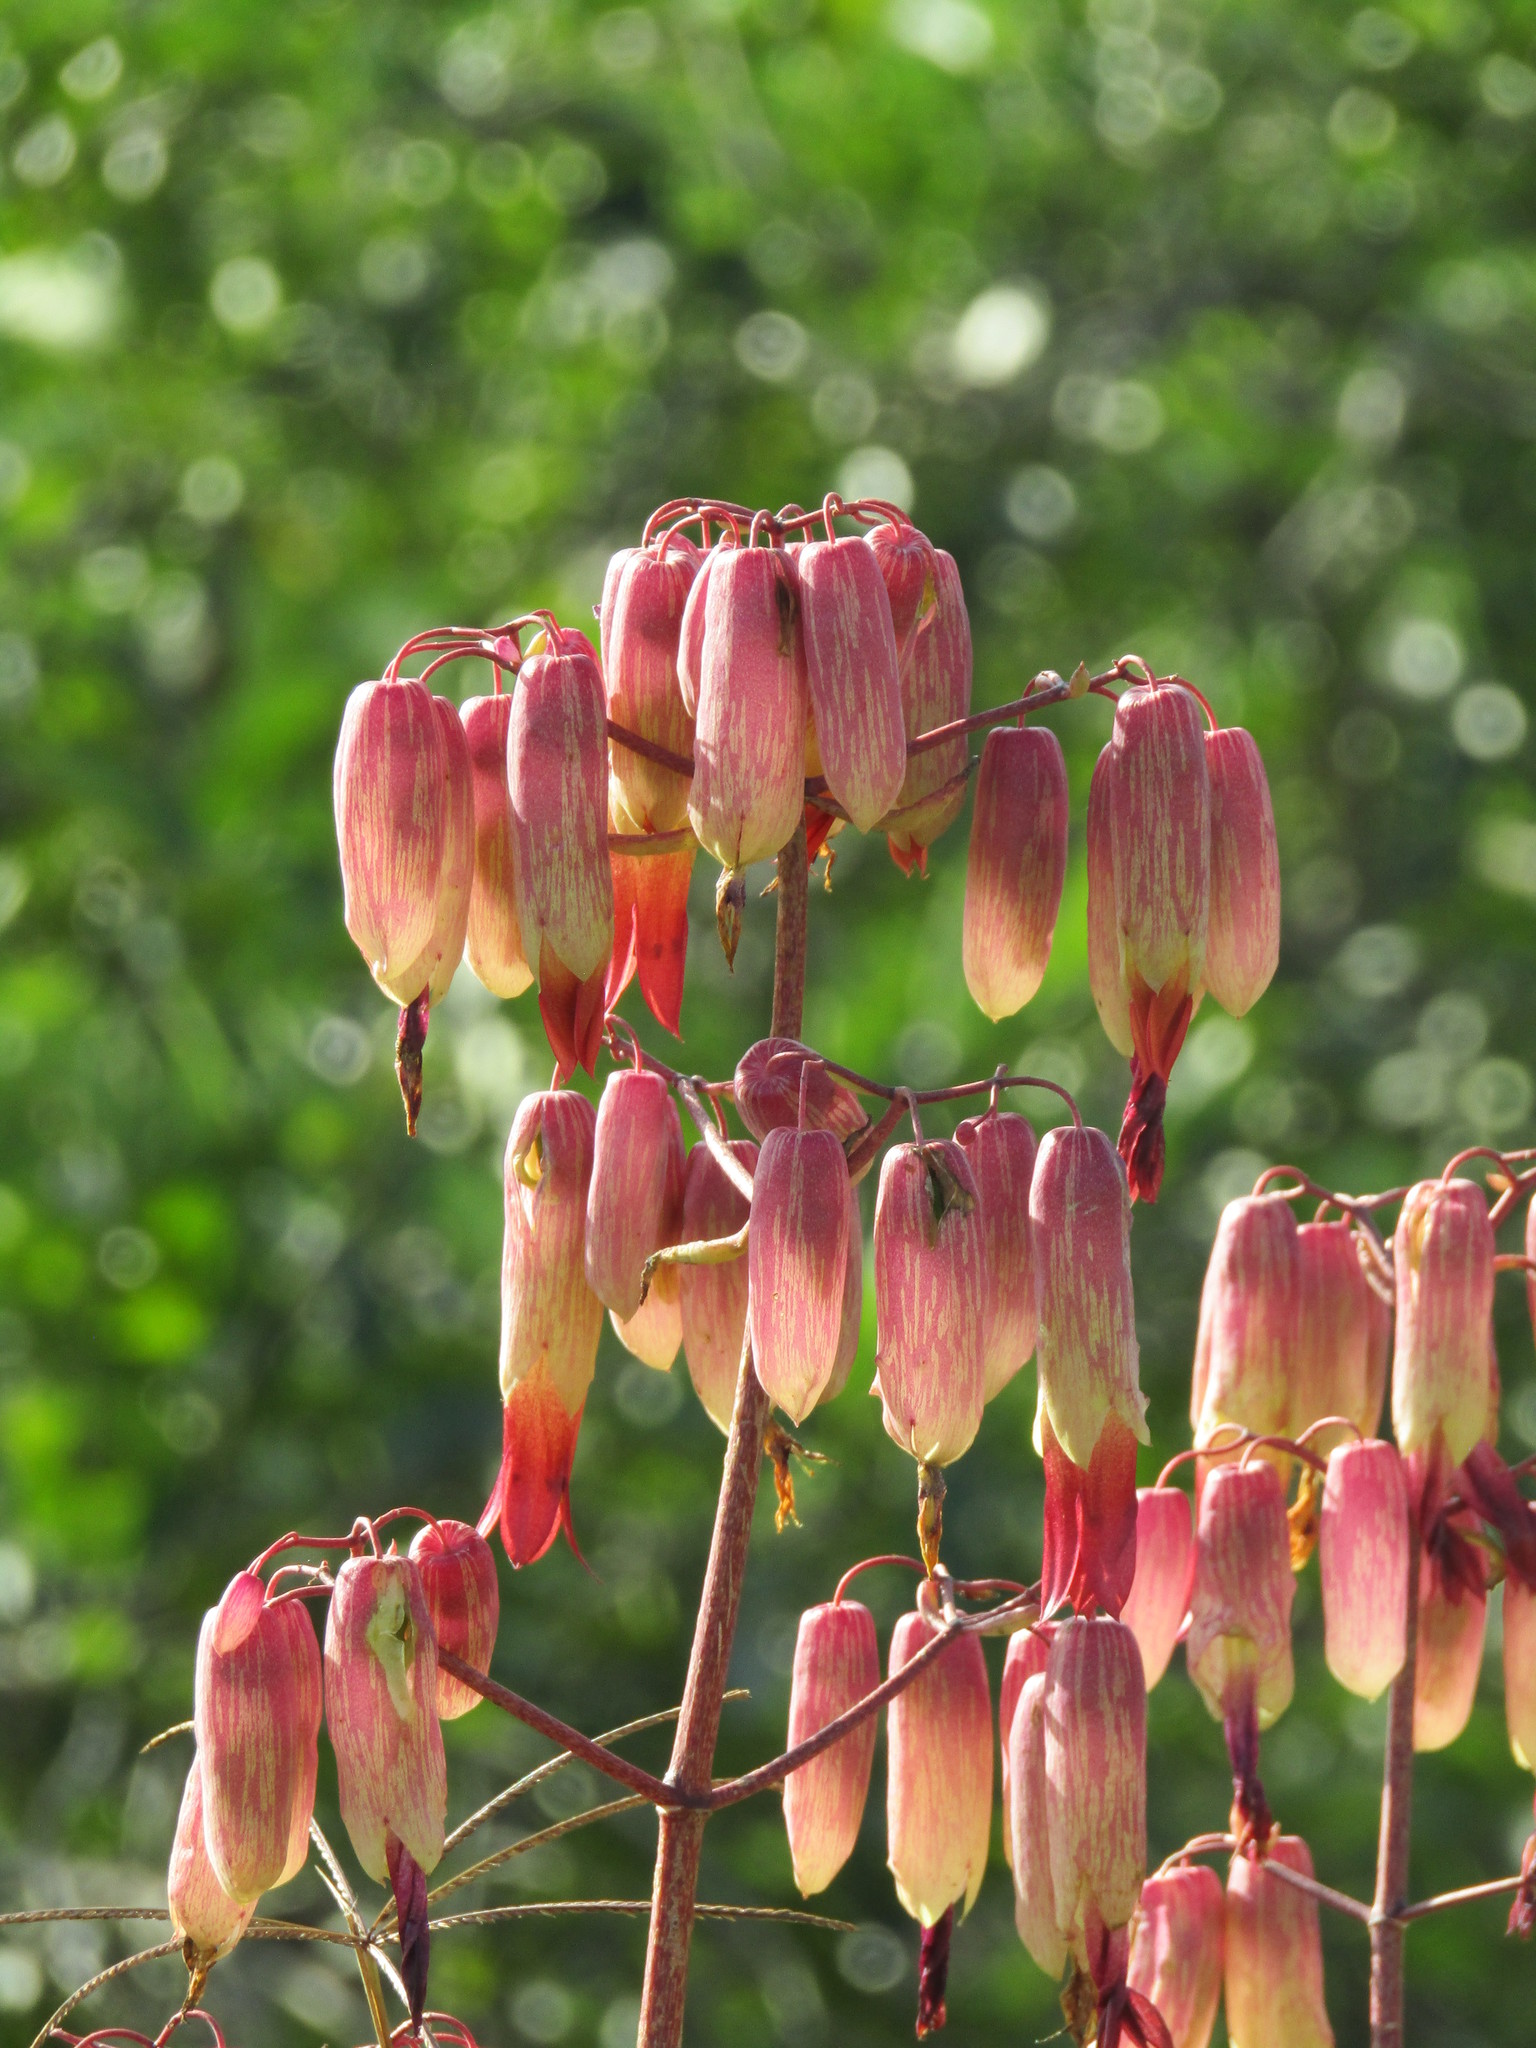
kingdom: Plantae
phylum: Tracheophyta
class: Magnoliopsida
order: Saxifragales
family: Crassulaceae
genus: Kalanchoe
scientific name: Kalanchoe pinnata
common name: Cathedral bells
